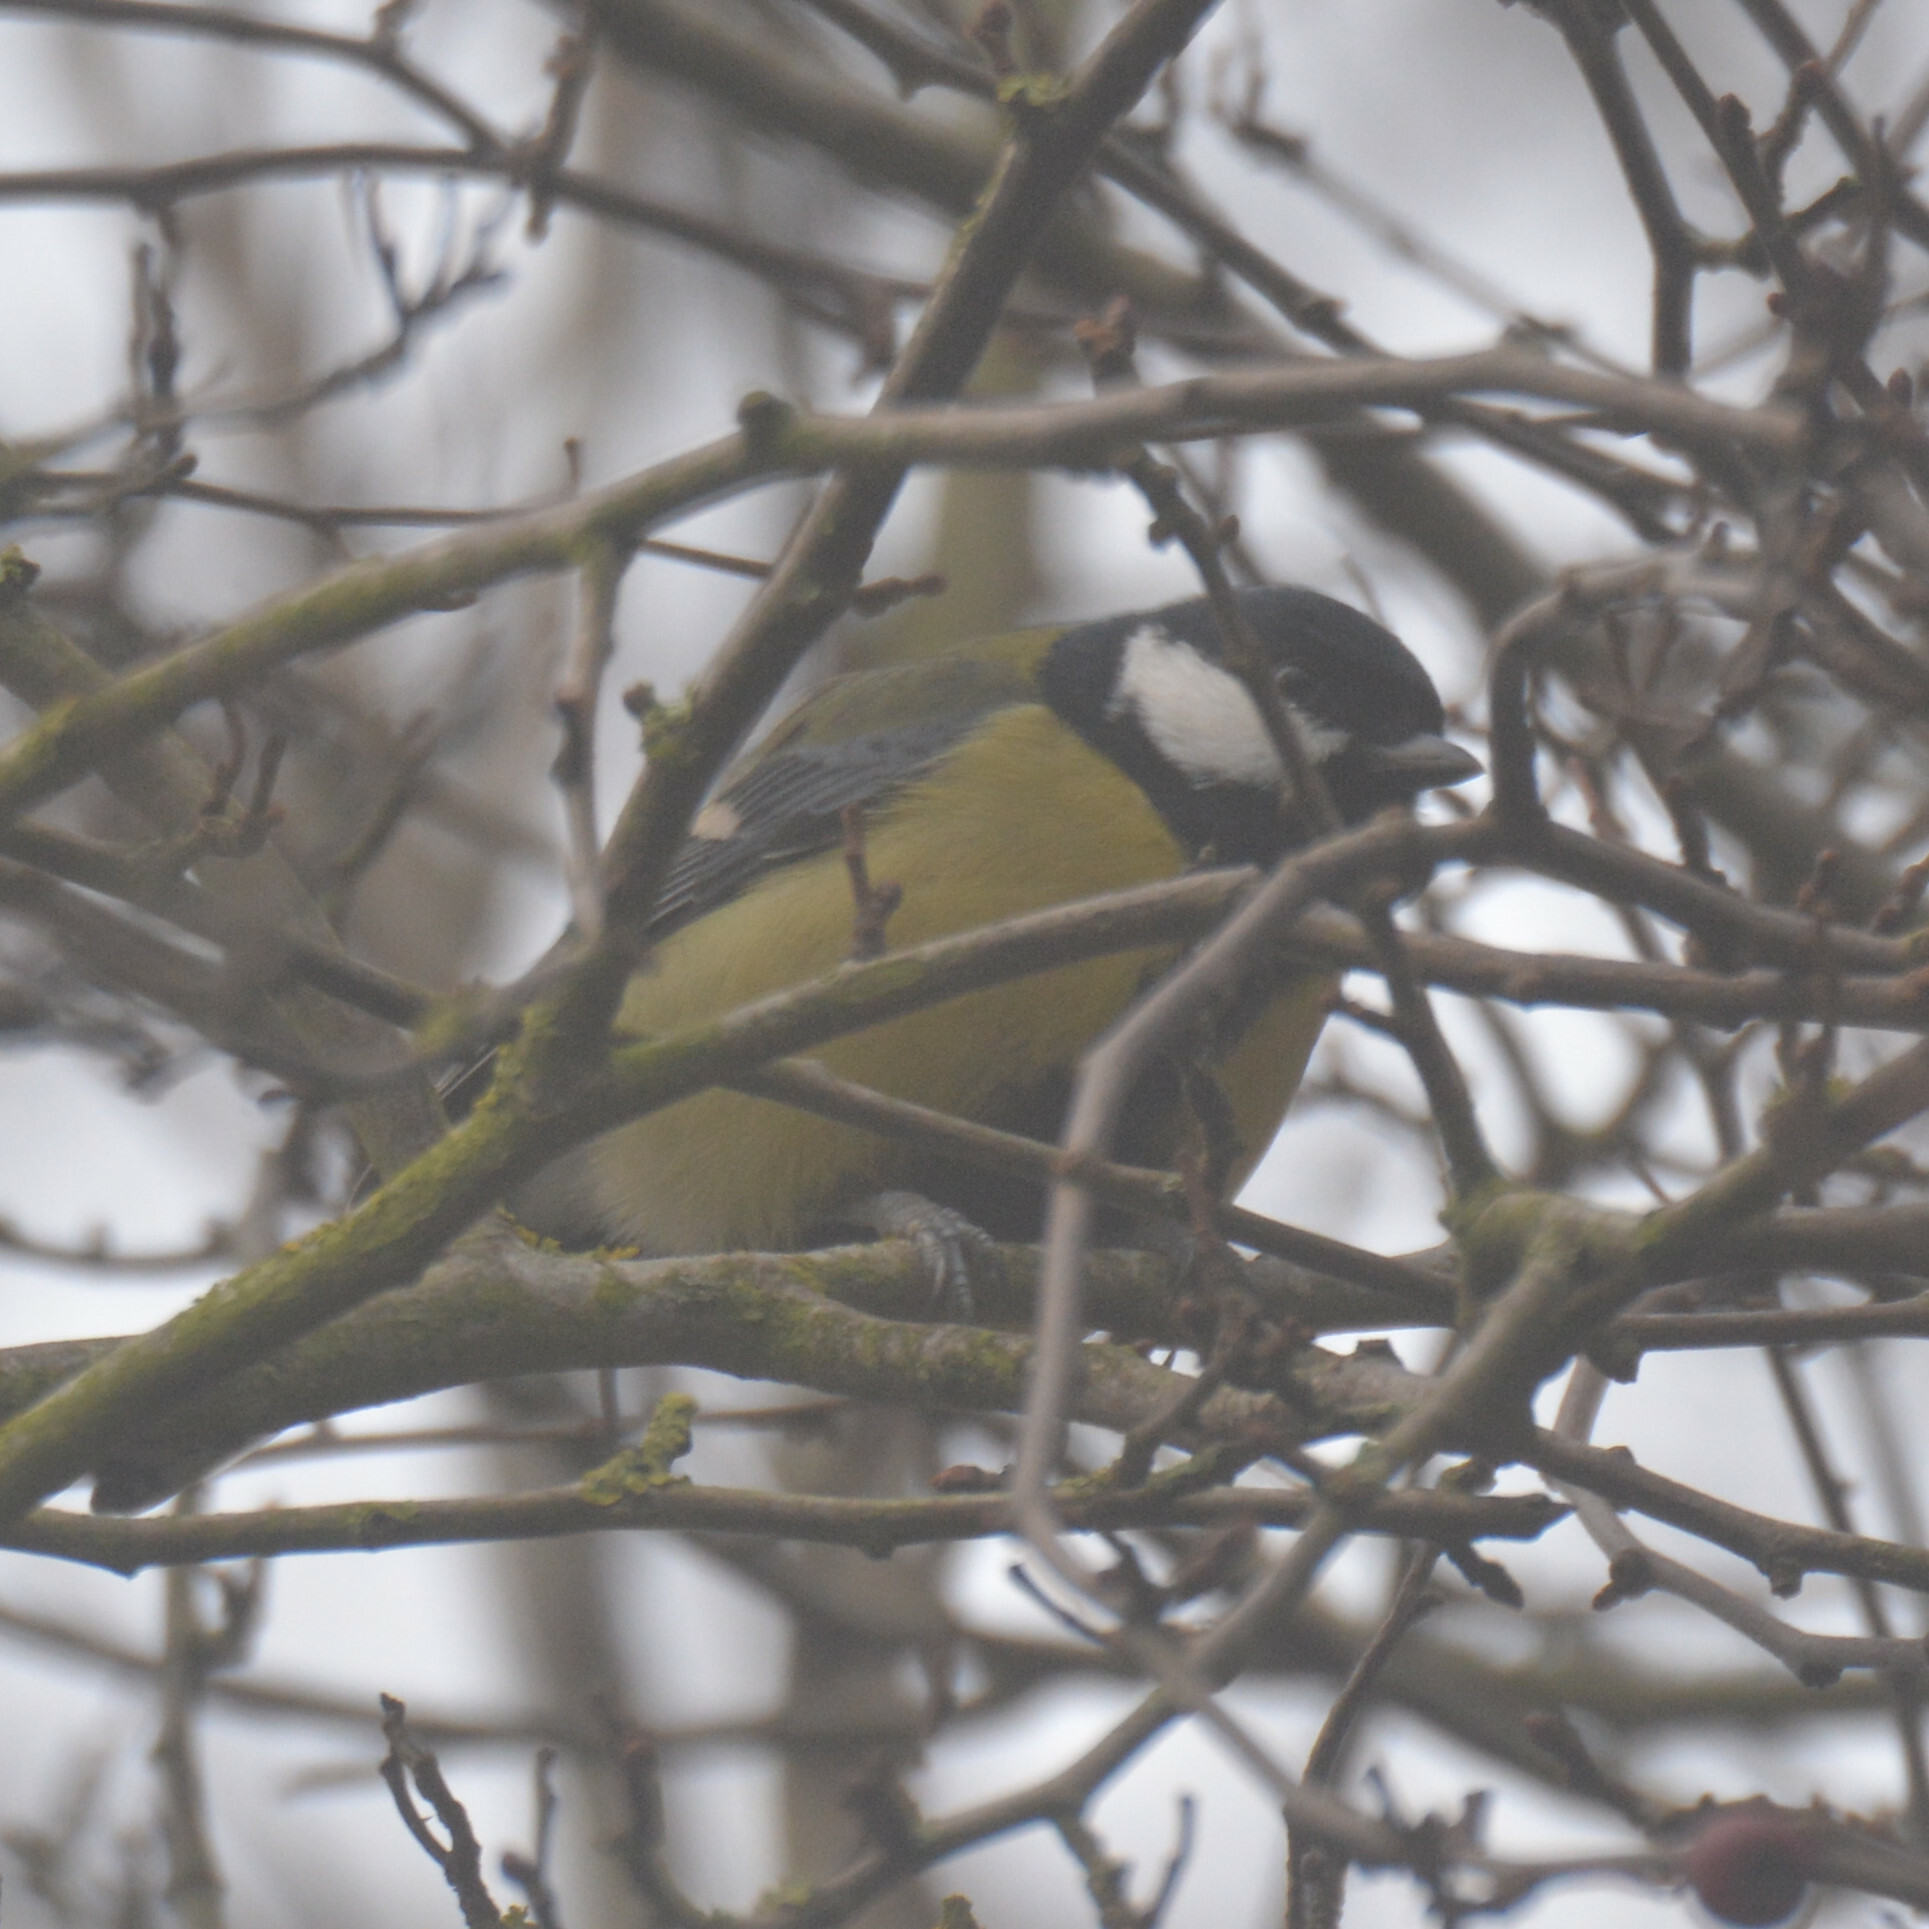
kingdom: Animalia
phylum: Chordata
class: Aves
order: Passeriformes
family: Paridae
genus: Parus
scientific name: Parus major
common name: Great tit
